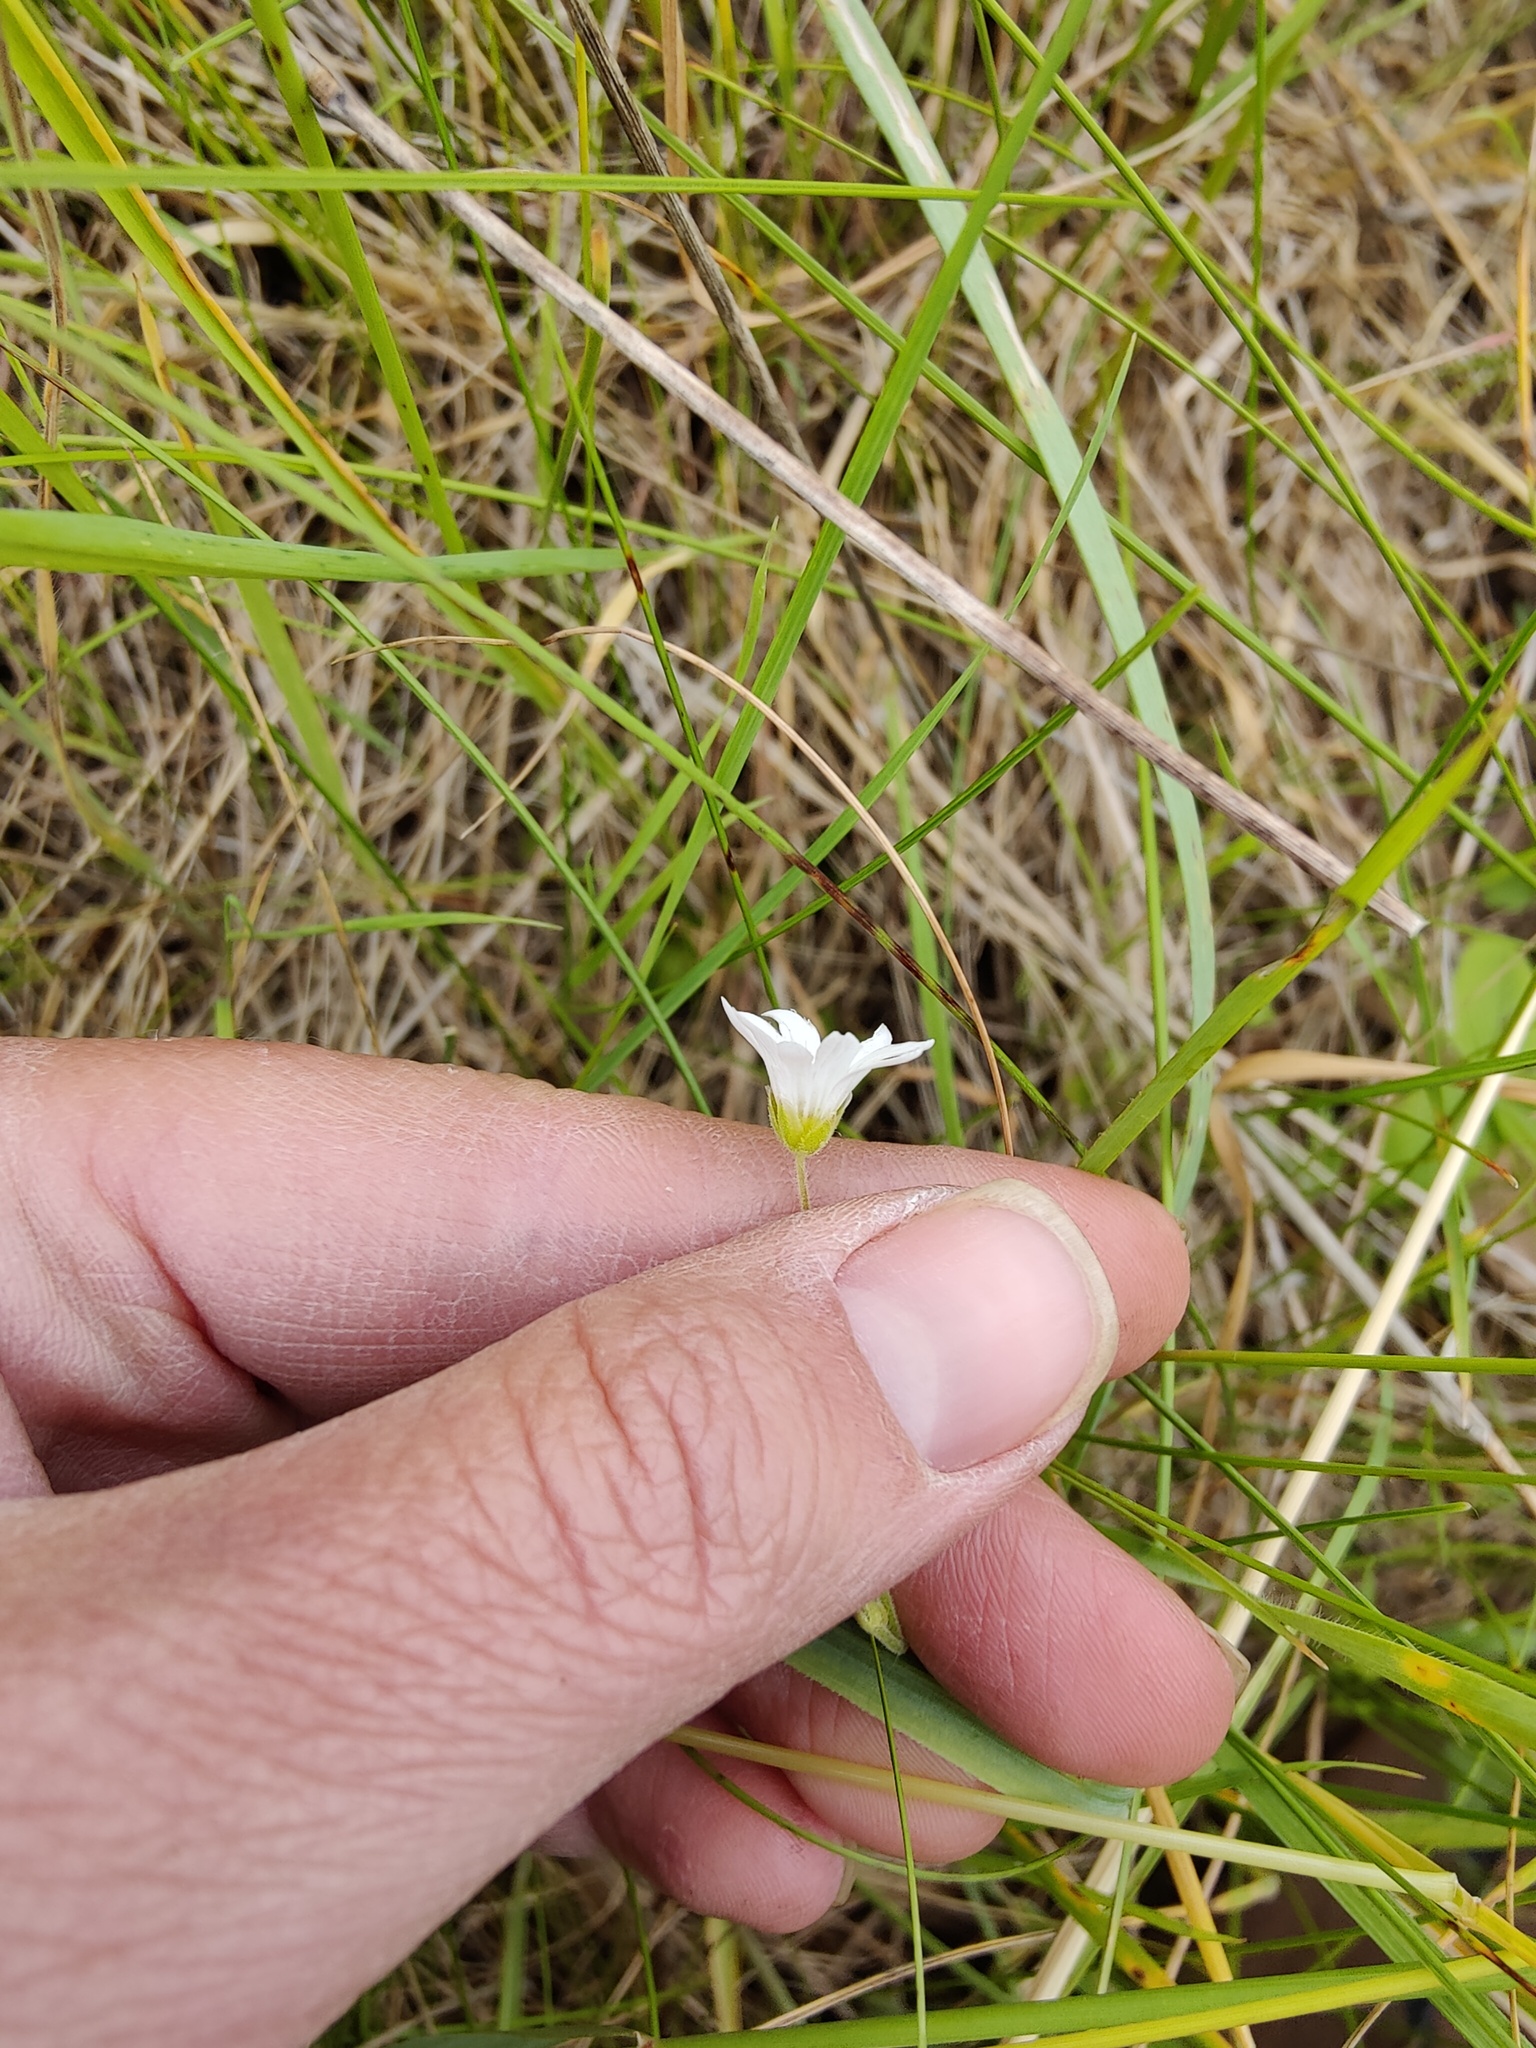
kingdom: Plantae
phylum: Tracheophyta
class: Magnoliopsida
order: Caryophyllales
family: Caryophyllaceae
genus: Cerastium
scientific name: Cerastium arvense
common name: Field mouse-ear
